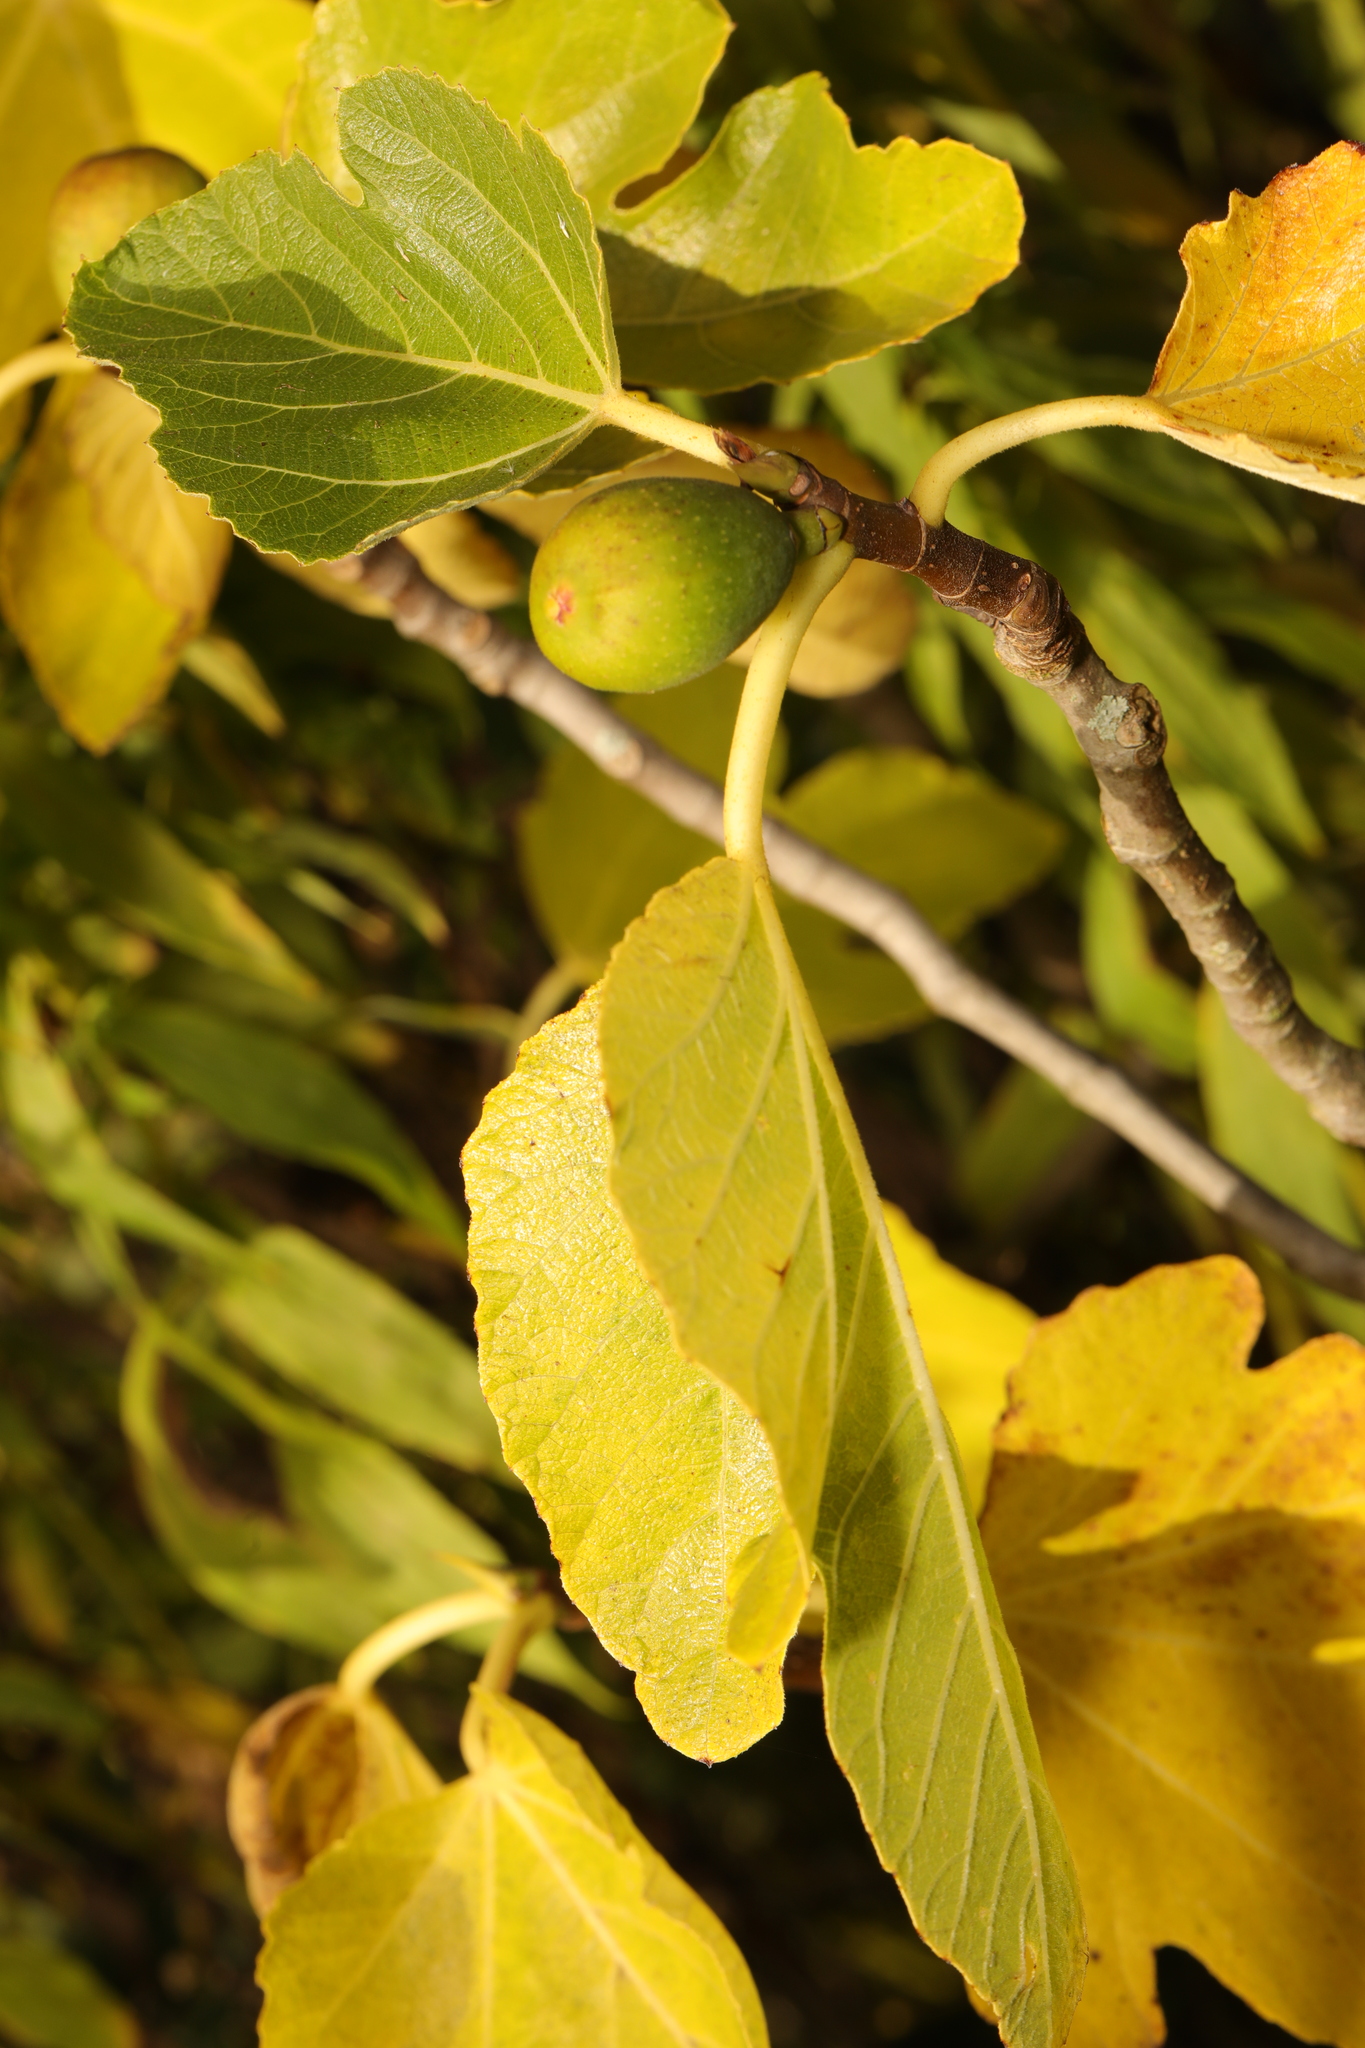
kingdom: Plantae
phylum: Tracheophyta
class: Magnoliopsida
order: Rosales
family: Moraceae
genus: Ficus
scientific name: Ficus carica
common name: Fig
